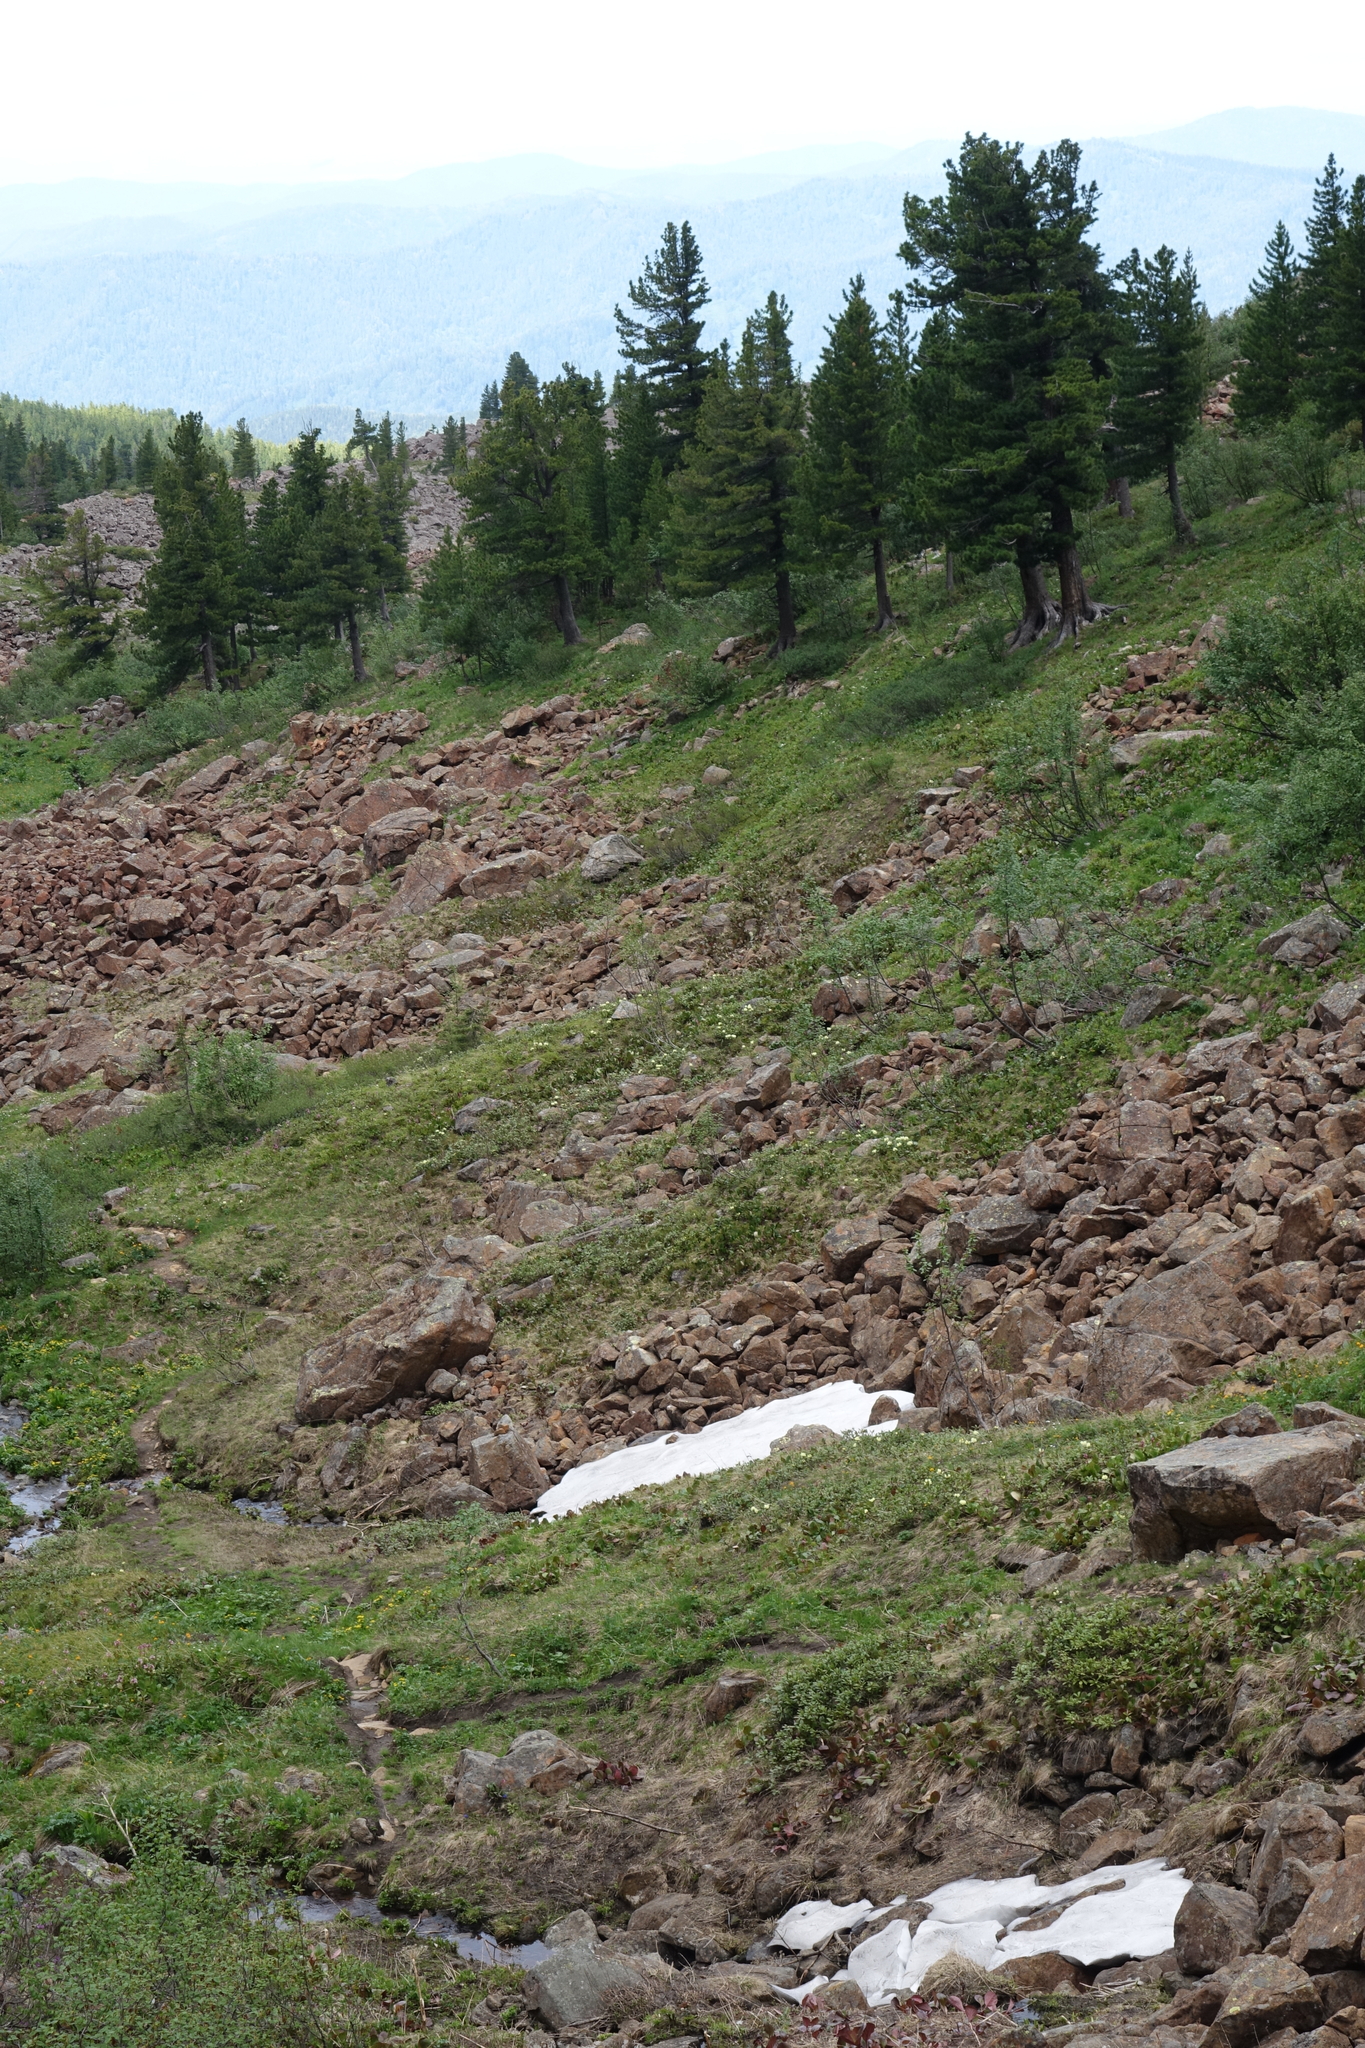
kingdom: Plantae
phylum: Tracheophyta
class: Pinopsida
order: Pinales
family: Pinaceae
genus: Pinus
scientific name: Pinus sibirica
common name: Siberian pine
